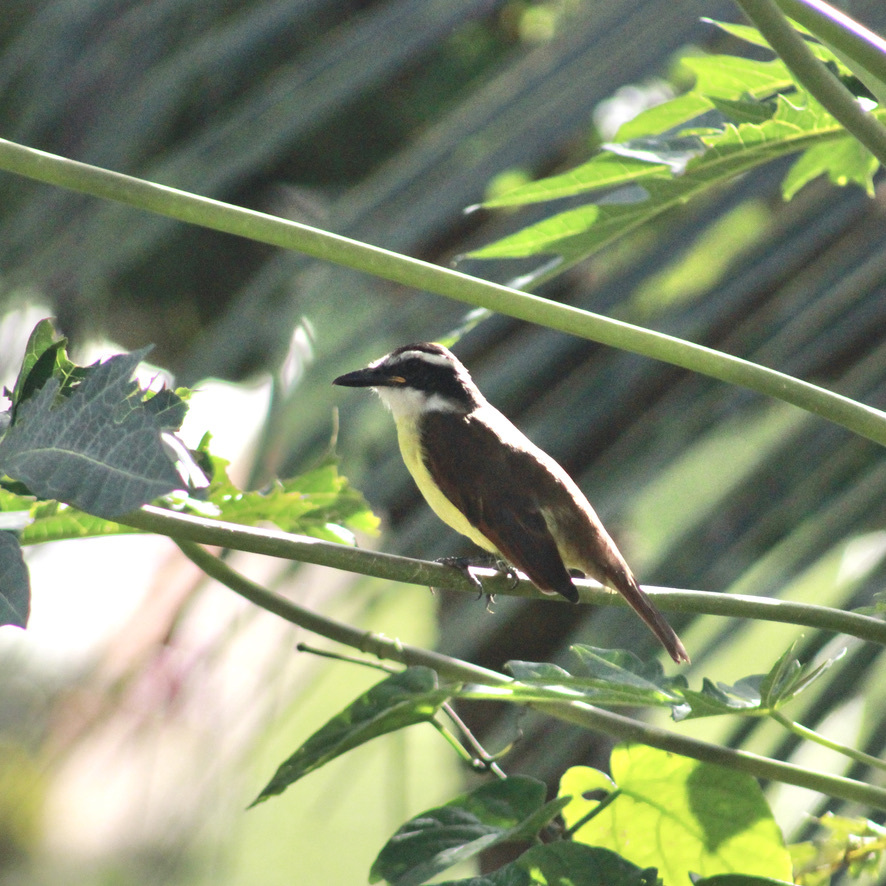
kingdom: Animalia
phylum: Chordata
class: Aves
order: Passeriformes
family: Tyrannidae
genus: Pitangus
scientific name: Pitangus sulphuratus
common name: Great kiskadee
